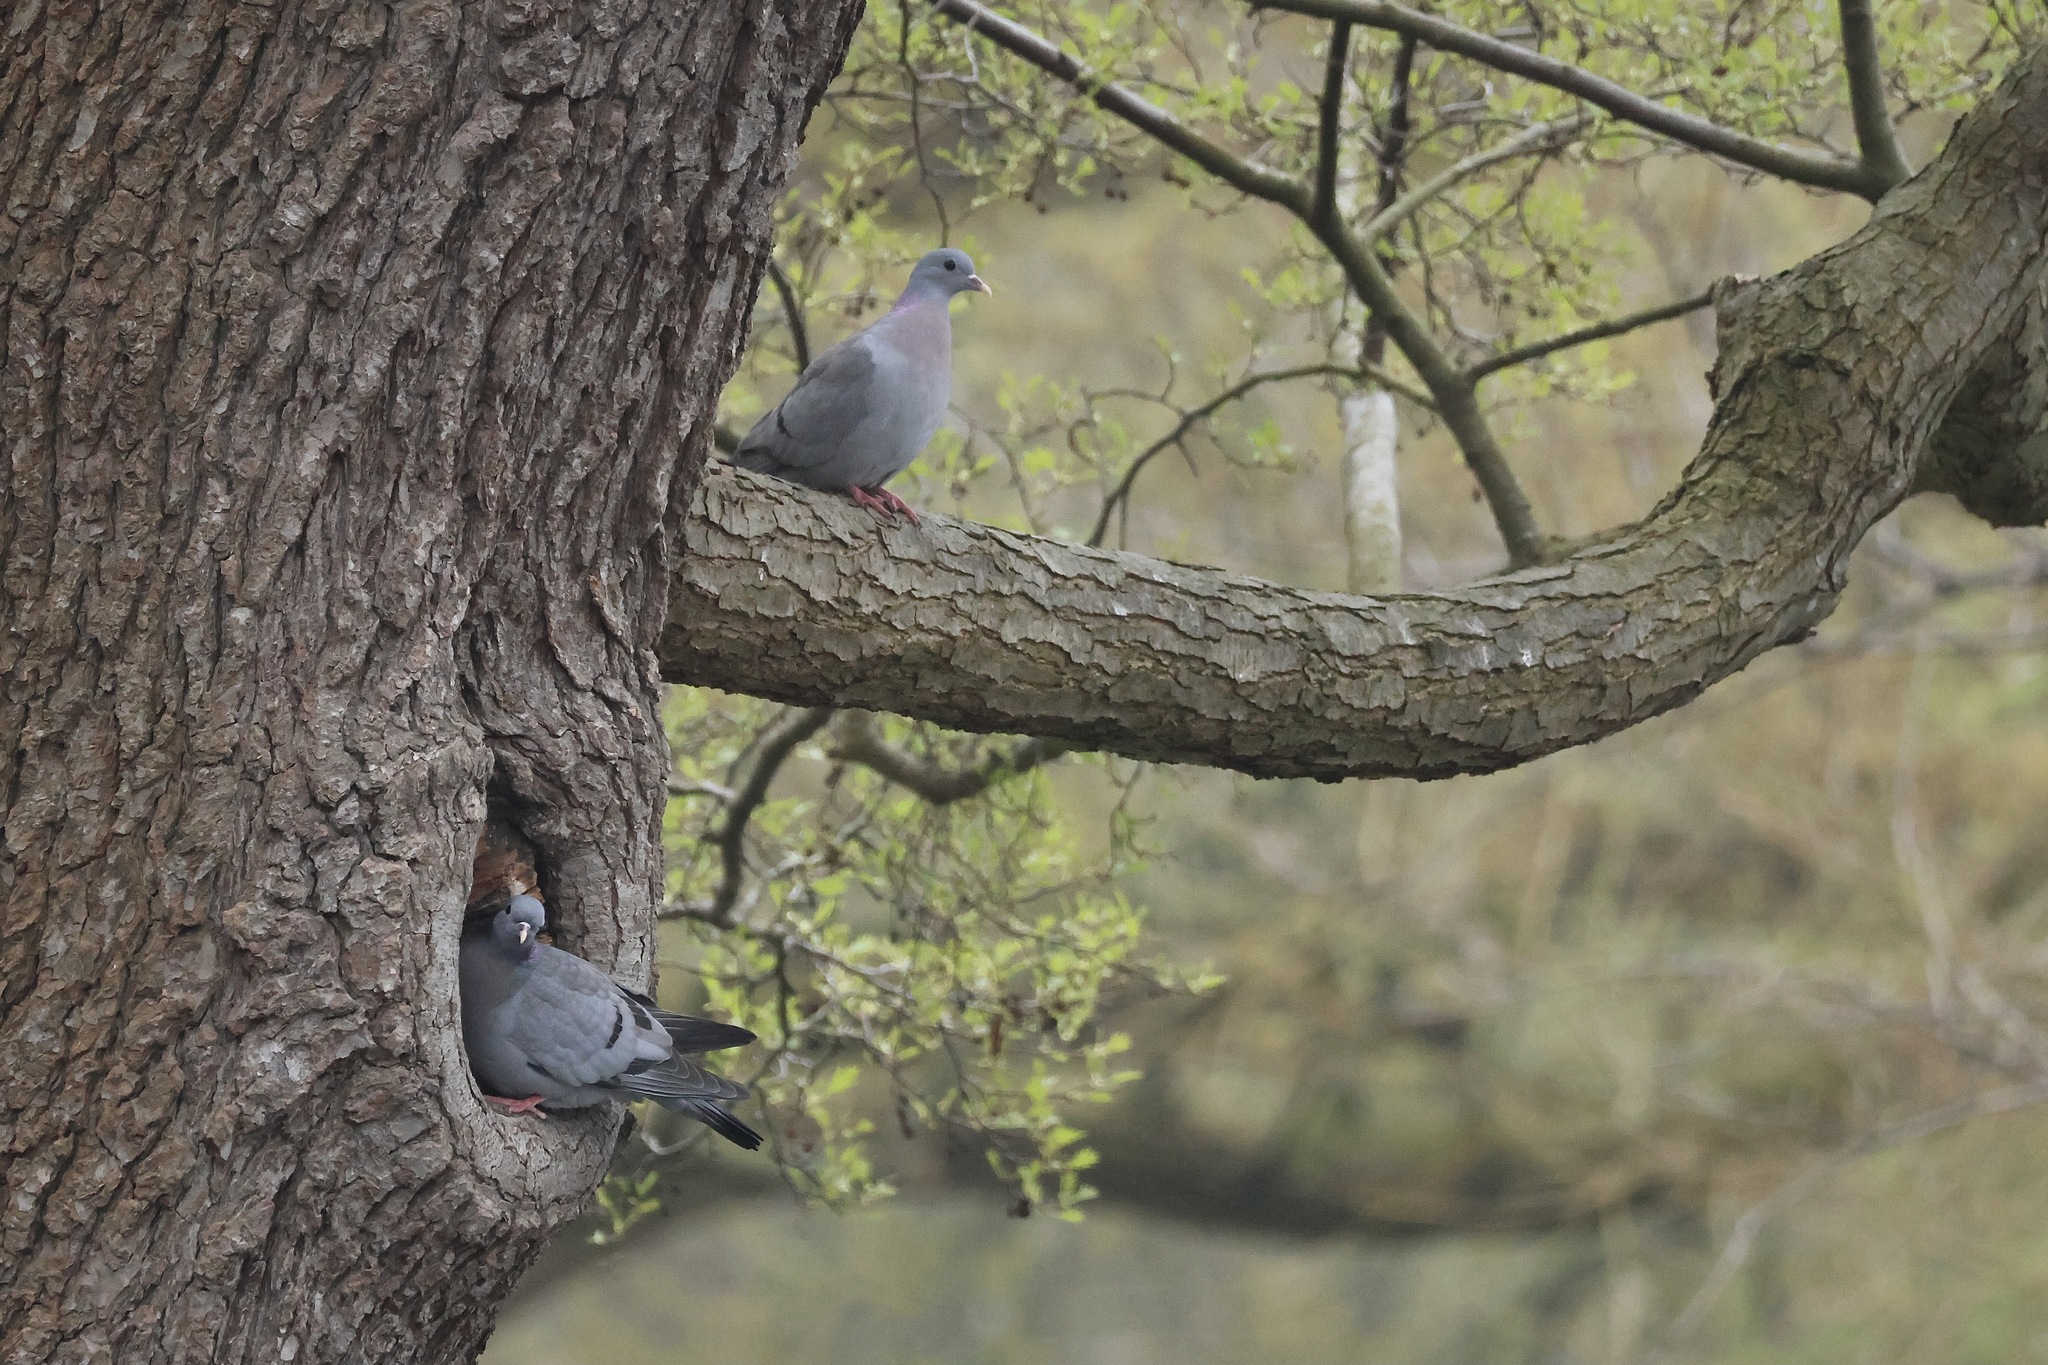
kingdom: Animalia
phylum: Chordata
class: Aves
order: Columbiformes
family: Columbidae
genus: Columba
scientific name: Columba oenas
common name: Stock dove
